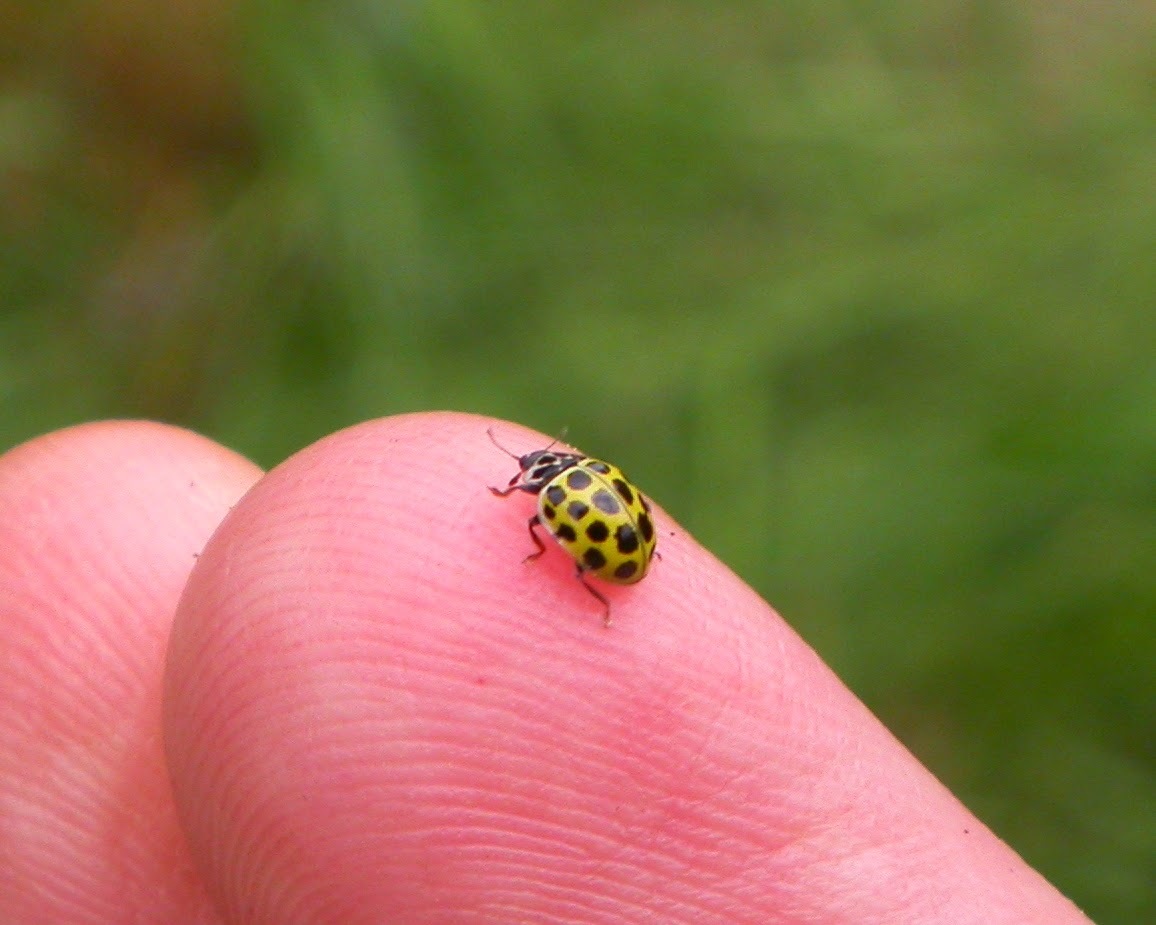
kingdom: Animalia
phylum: Arthropoda
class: Insecta
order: Coleoptera
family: Coccinellidae
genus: Psyllobora
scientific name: Psyllobora vigintiduopunctata
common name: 22-spot ladybird
